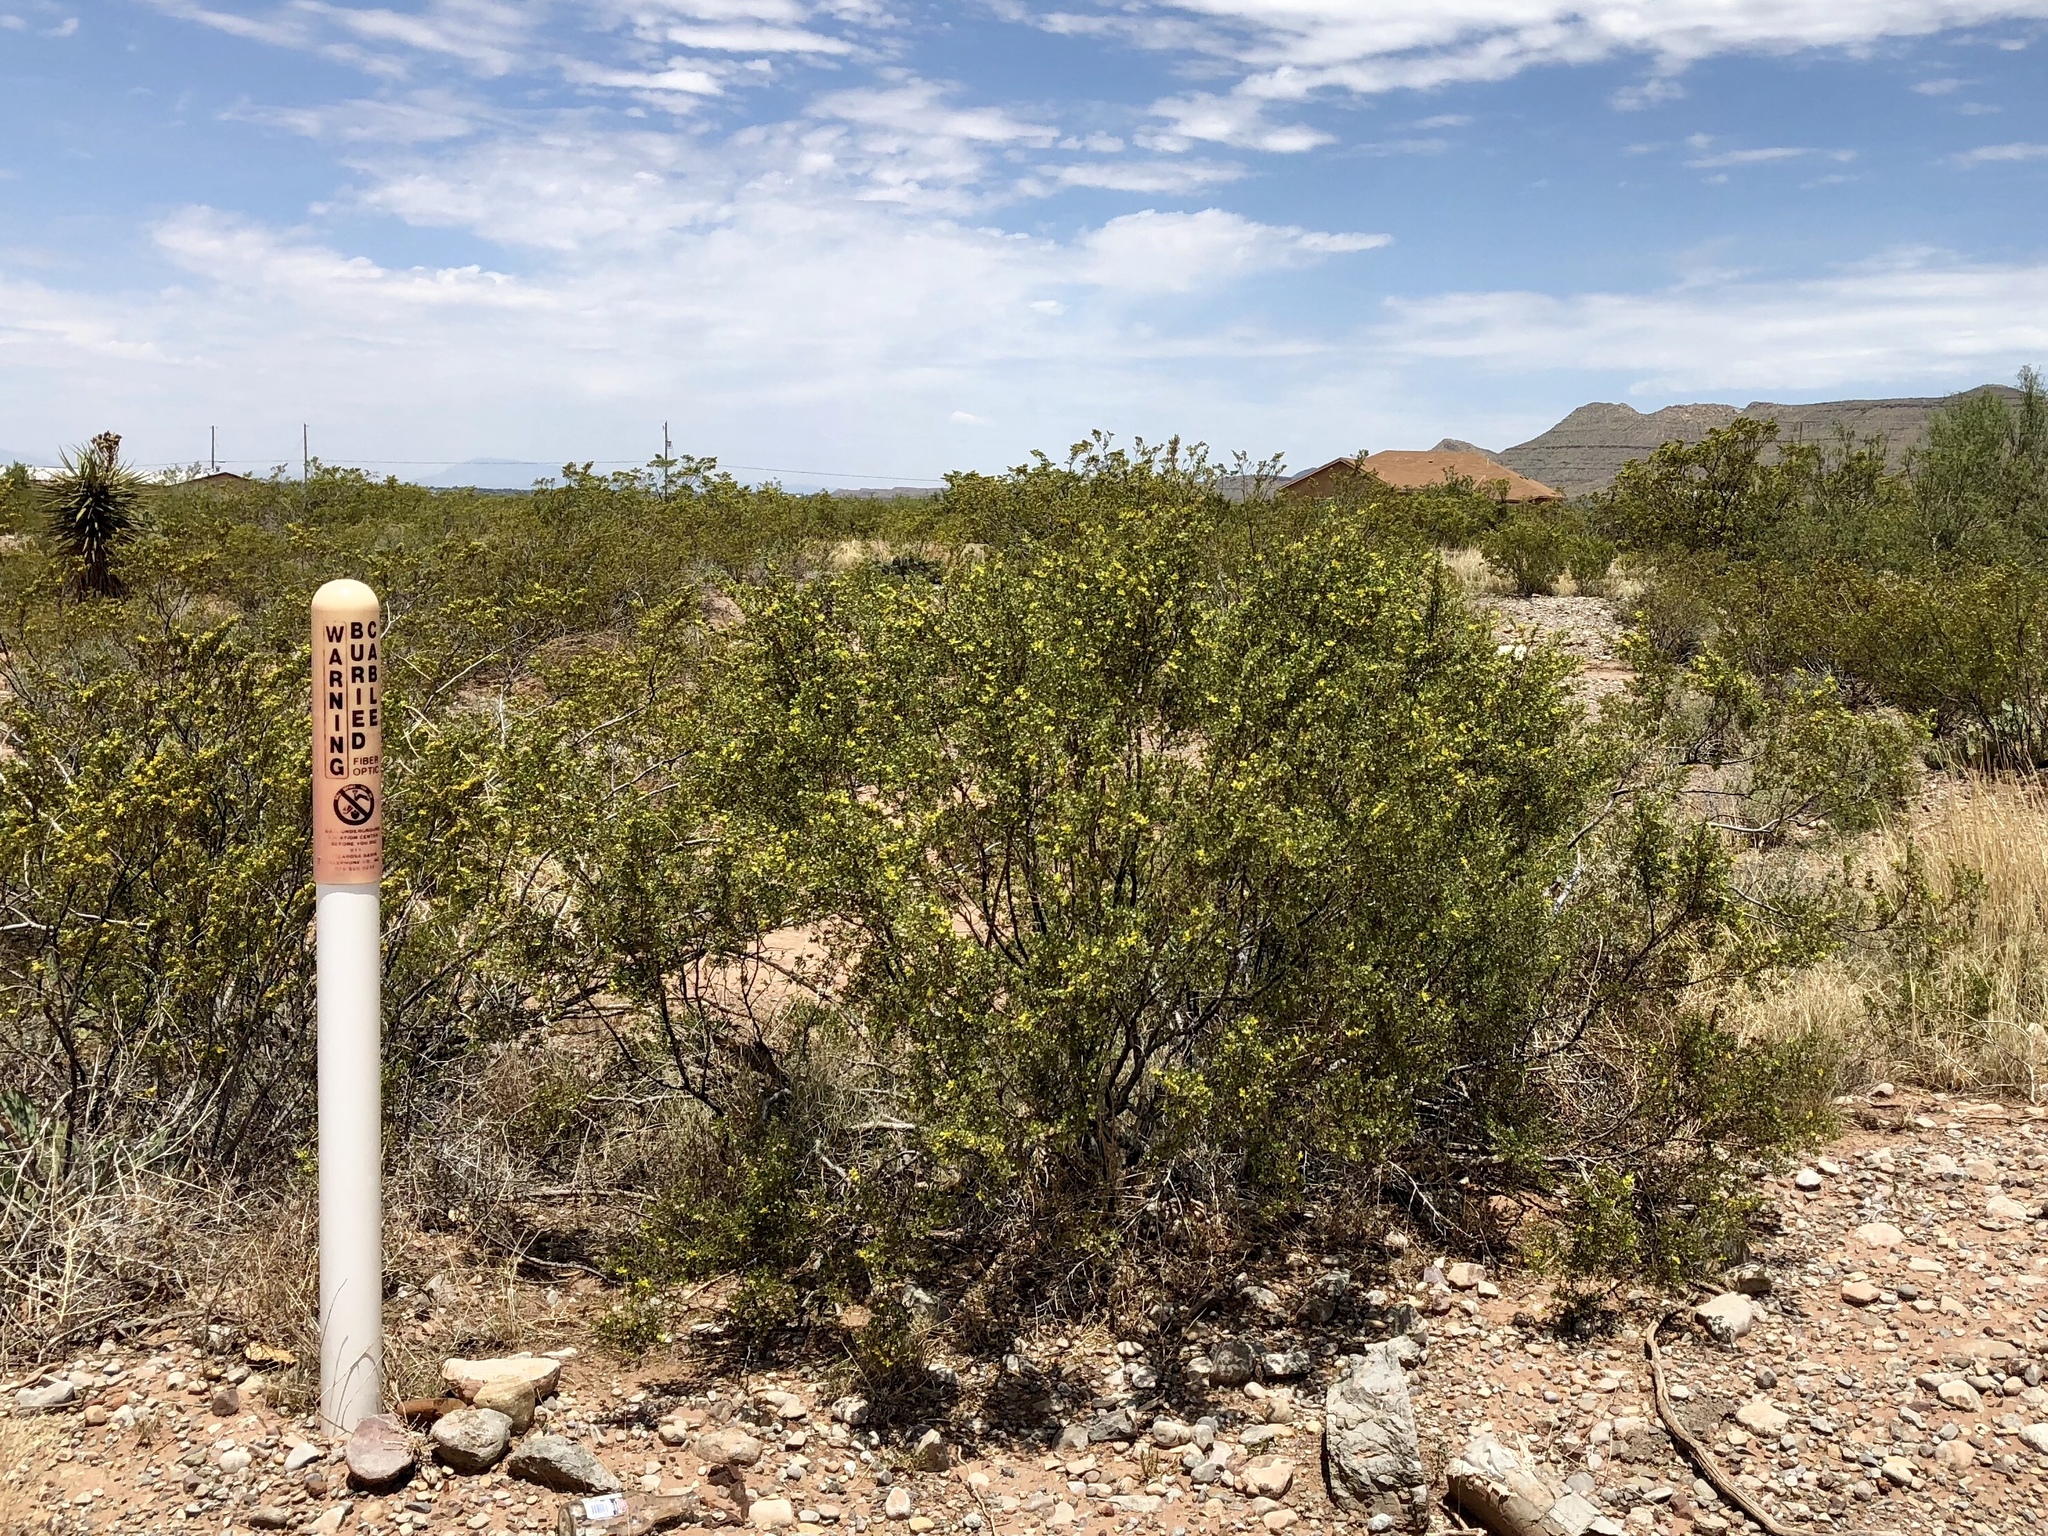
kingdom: Plantae
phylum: Tracheophyta
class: Magnoliopsida
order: Zygophyllales
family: Zygophyllaceae
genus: Larrea
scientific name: Larrea tridentata
